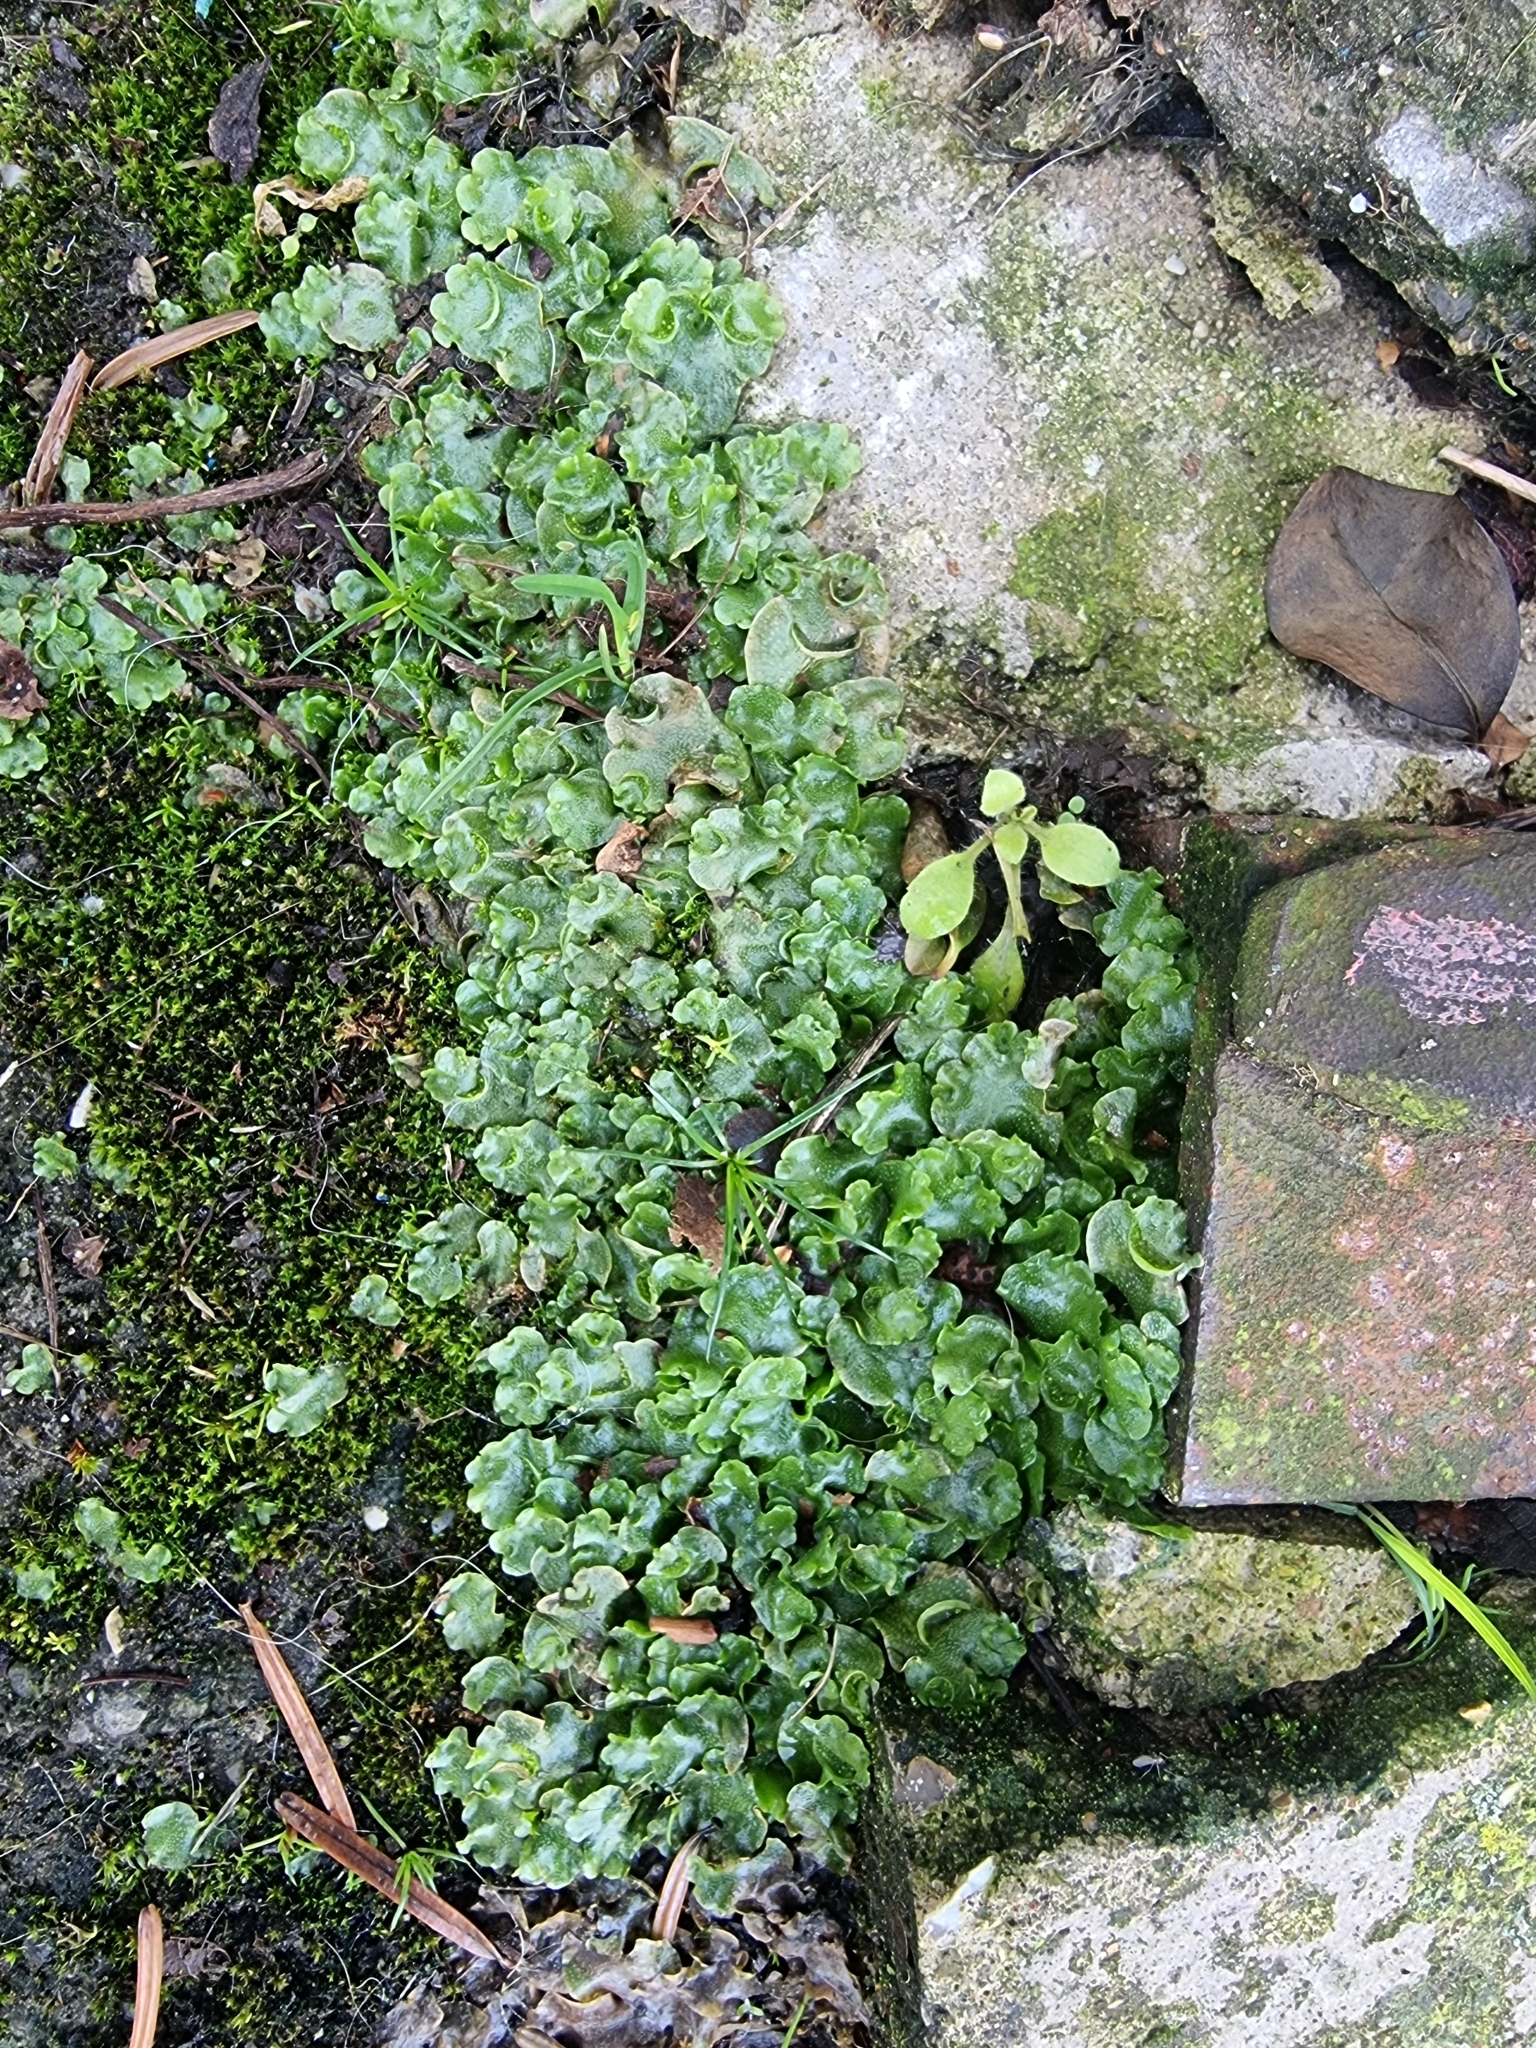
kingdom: Plantae
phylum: Marchantiophyta
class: Marchantiopsida
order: Lunulariales
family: Lunulariaceae
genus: Lunularia
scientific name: Lunularia cruciata
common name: Crescent-cup liverwort
